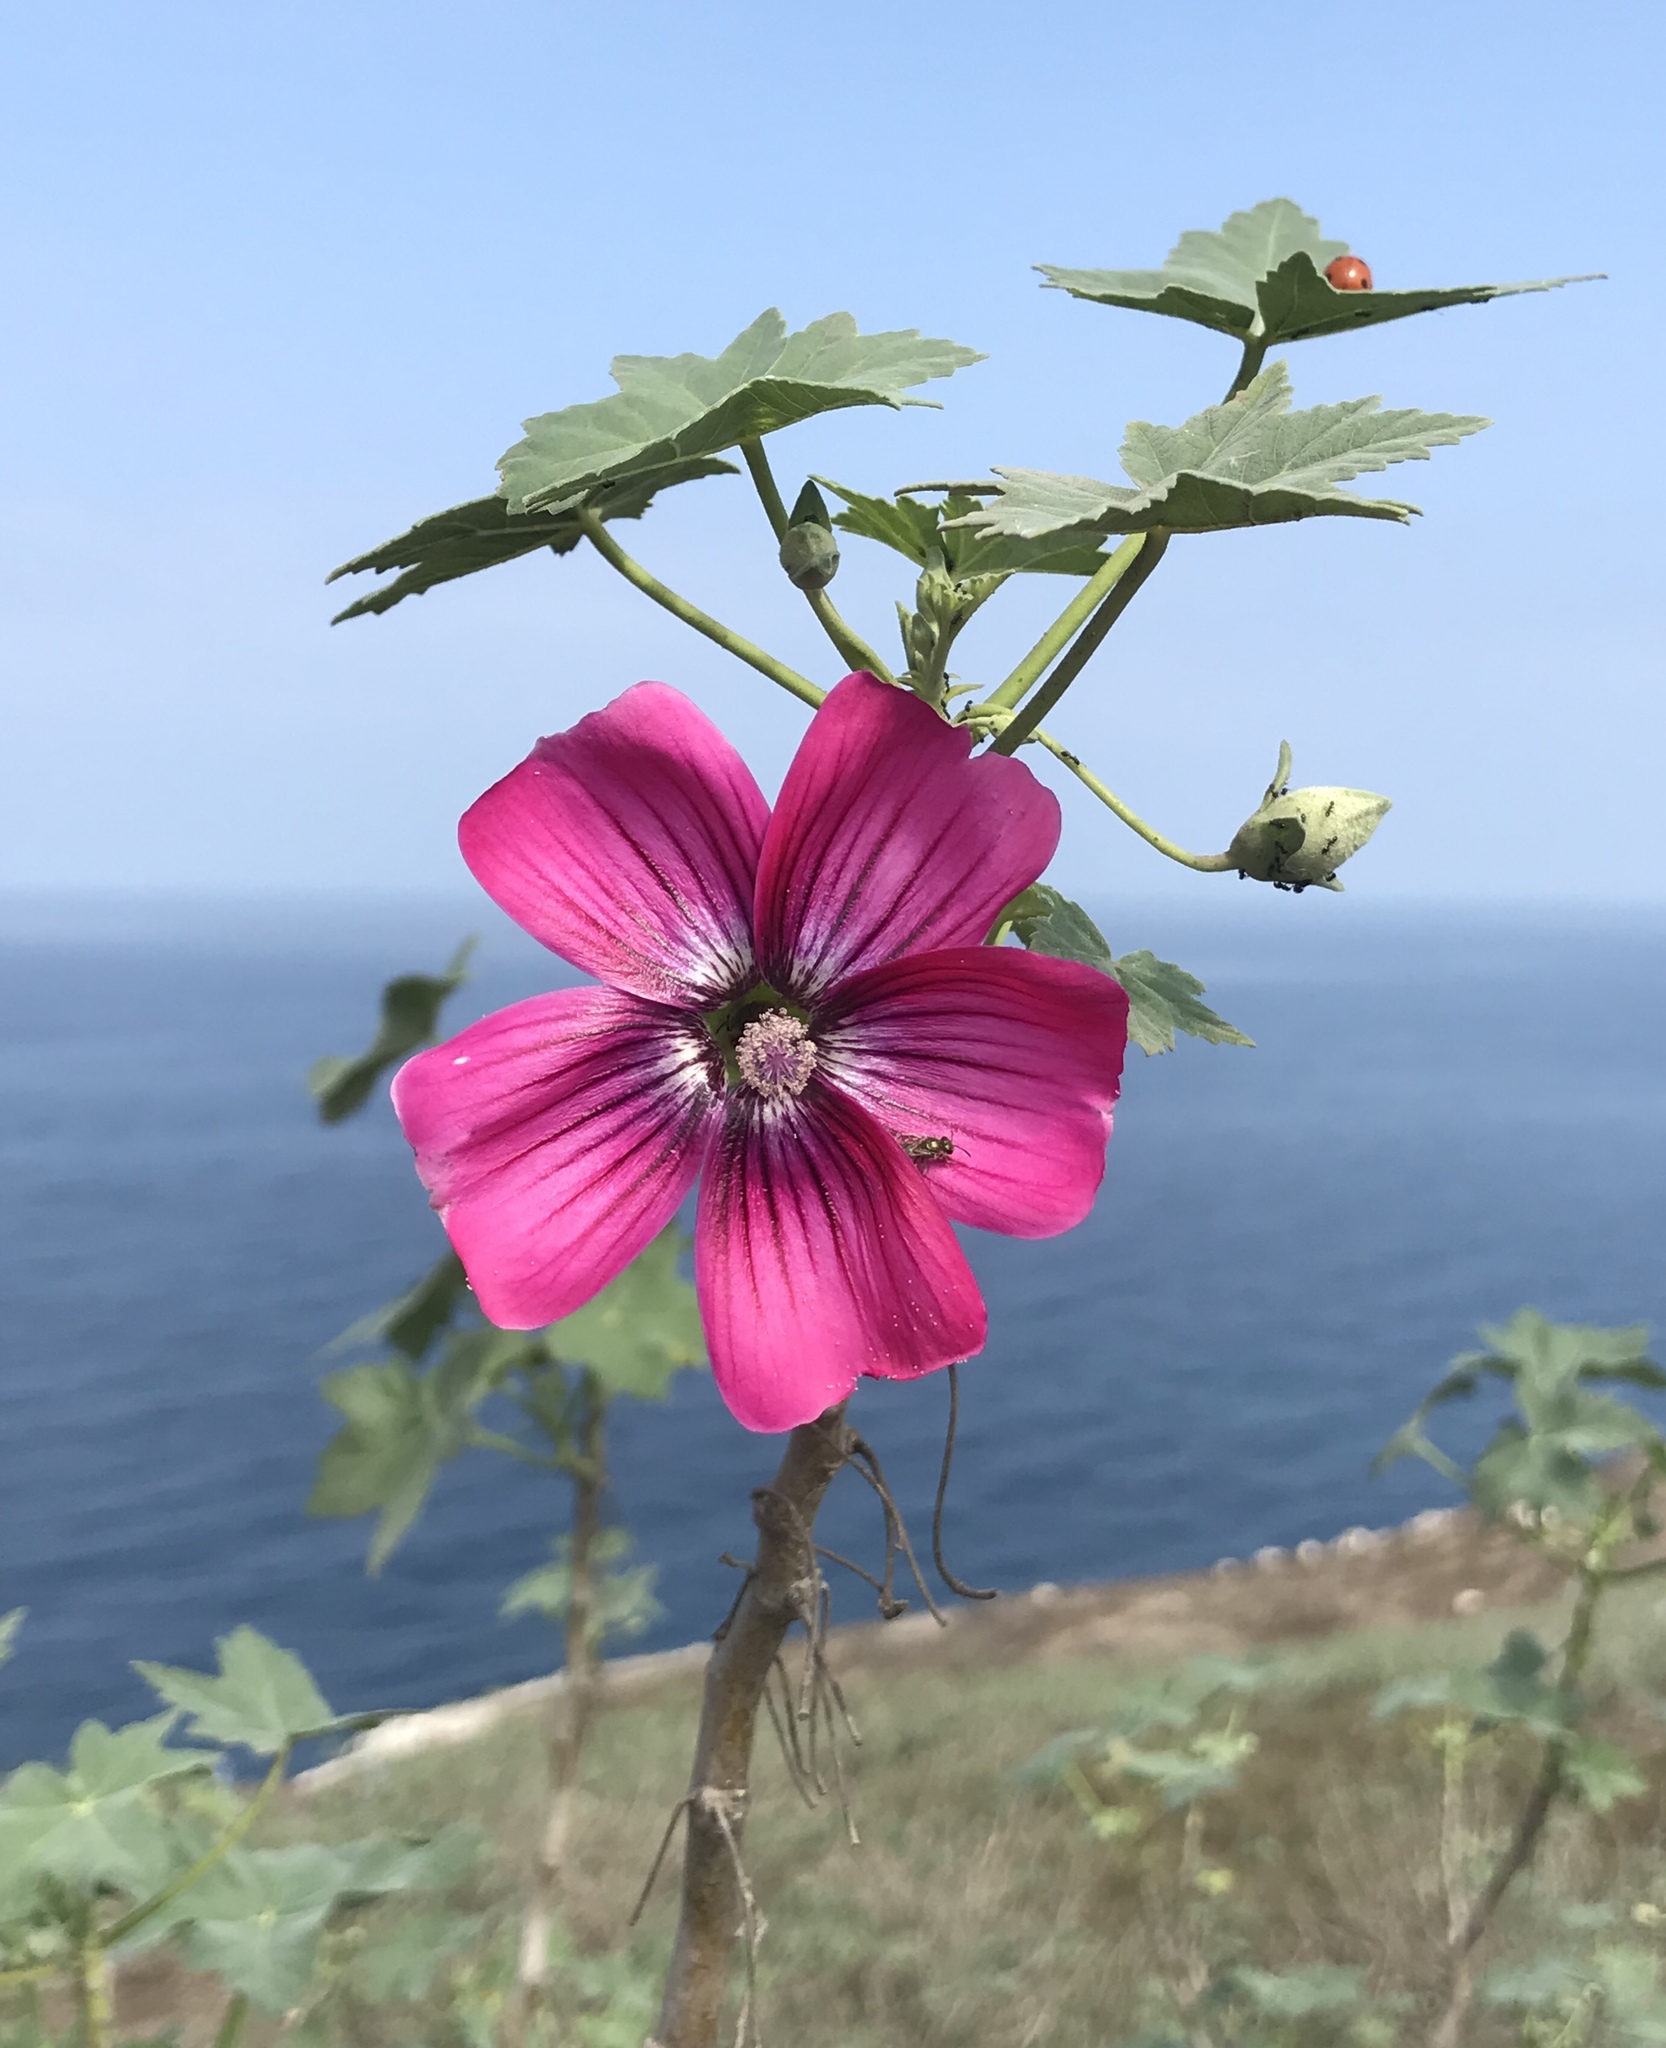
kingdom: Plantae
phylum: Tracheophyta
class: Magnoliopsida
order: Malvales
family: Malvaceae
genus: Malva
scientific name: Malva assurgentiflora
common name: Island mallow
